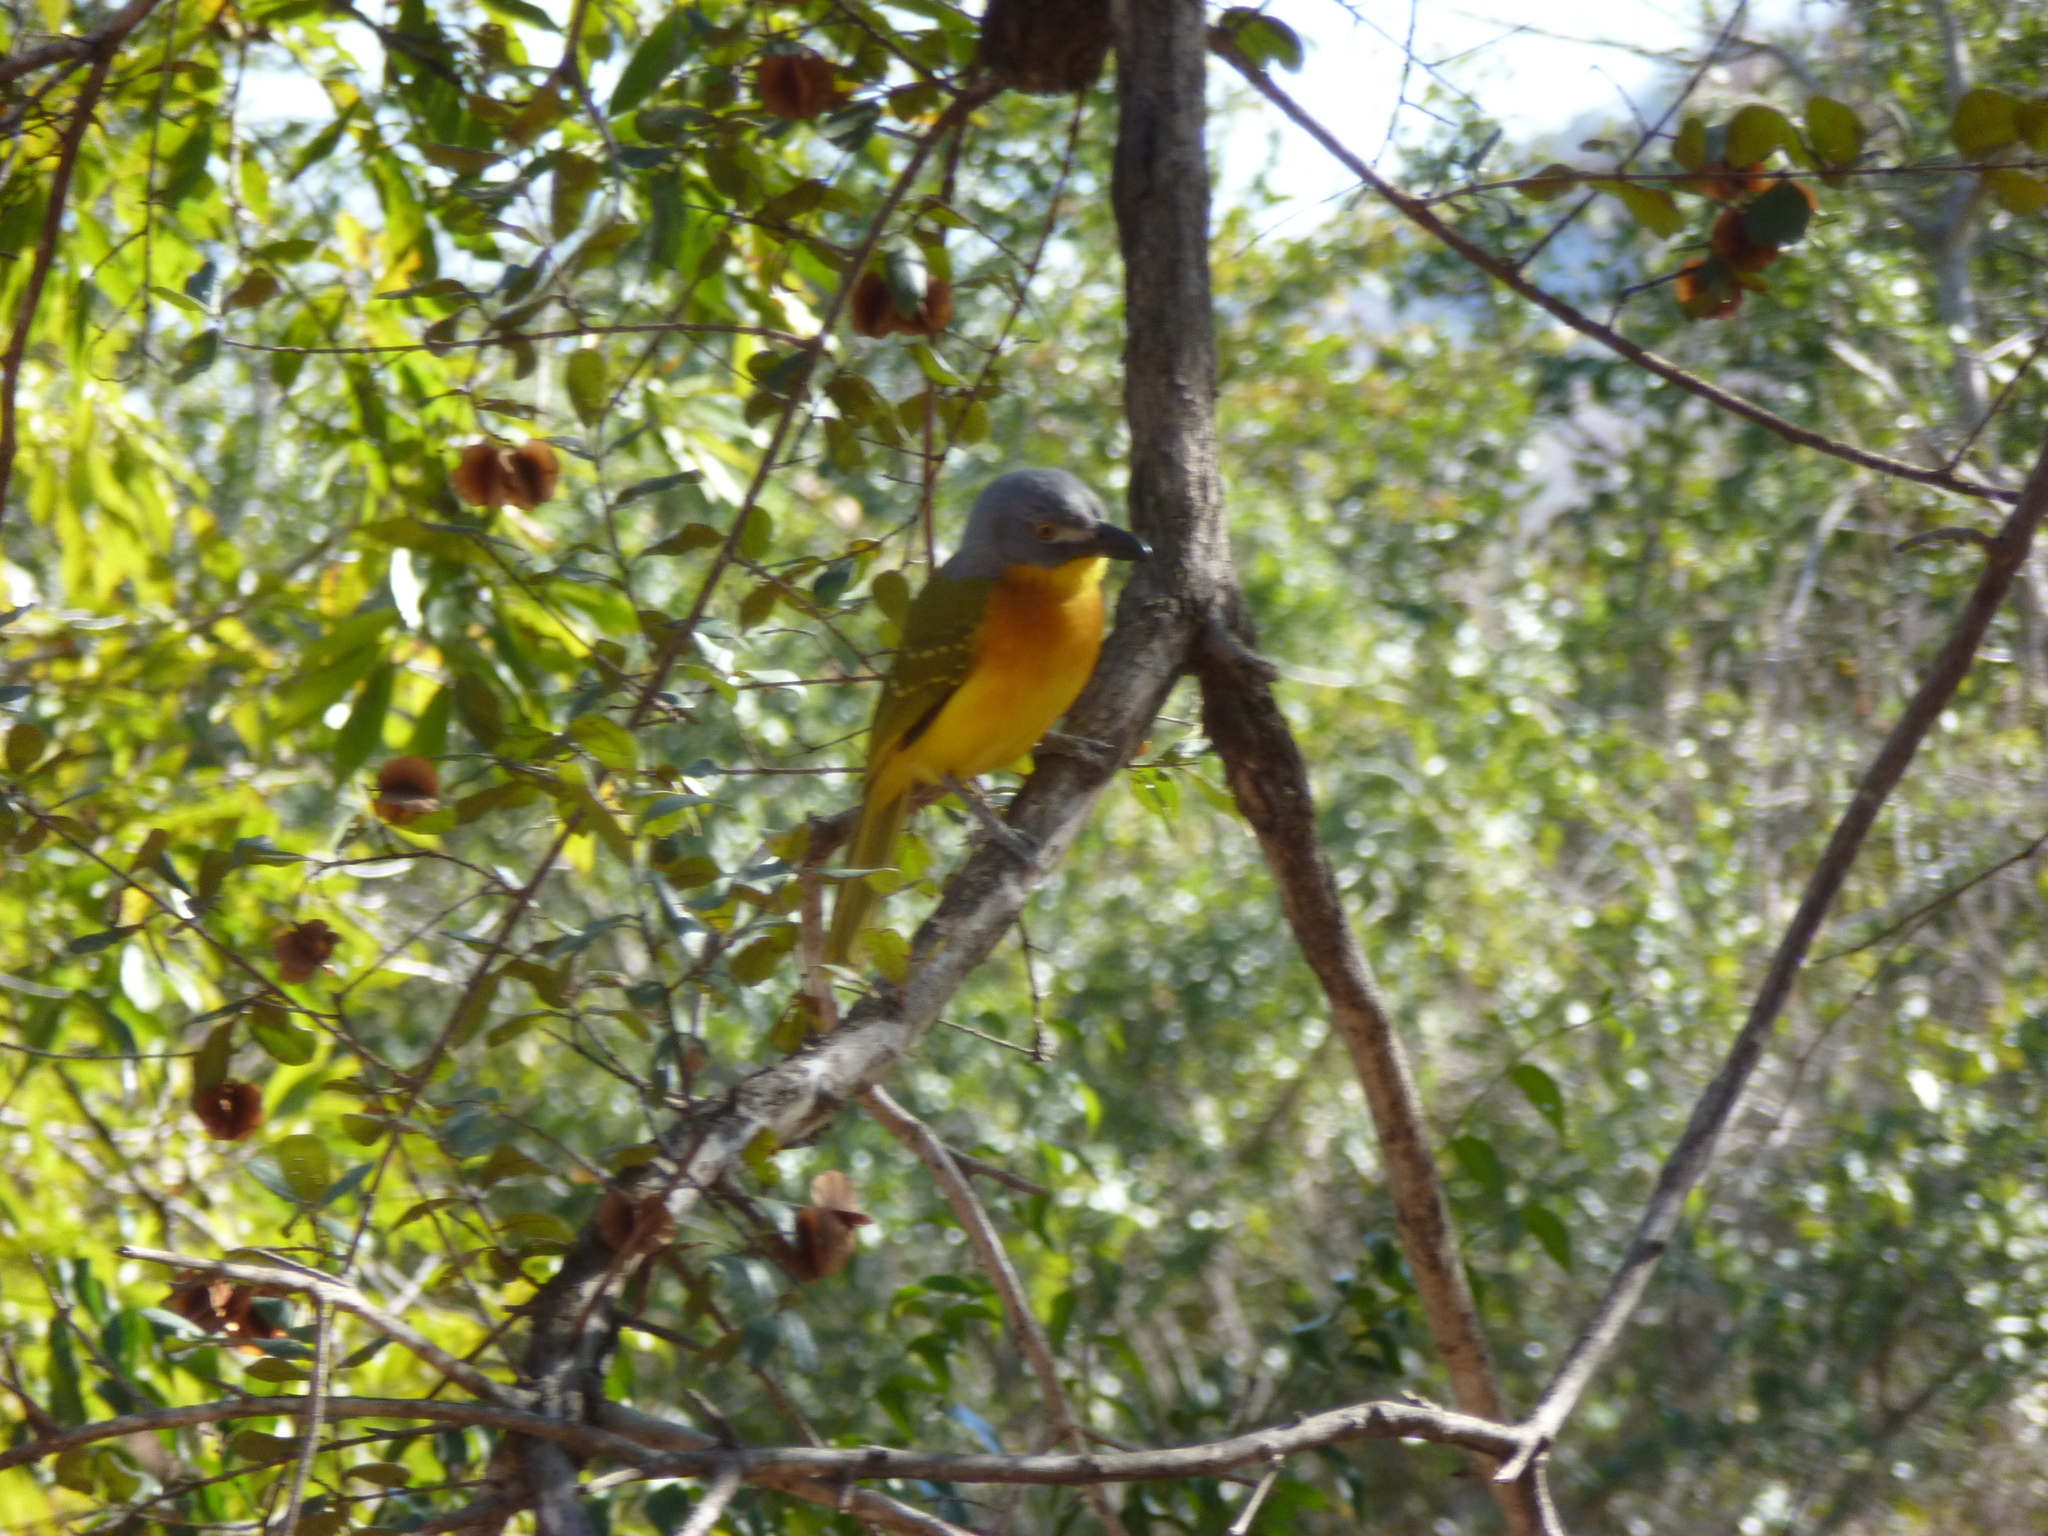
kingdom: Animalia
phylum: Chordata
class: Aves
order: Passeriformes
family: Malaconotidae
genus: Malaconotus
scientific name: Malaconotus blanchoti
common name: Grey-headed bushshrike
